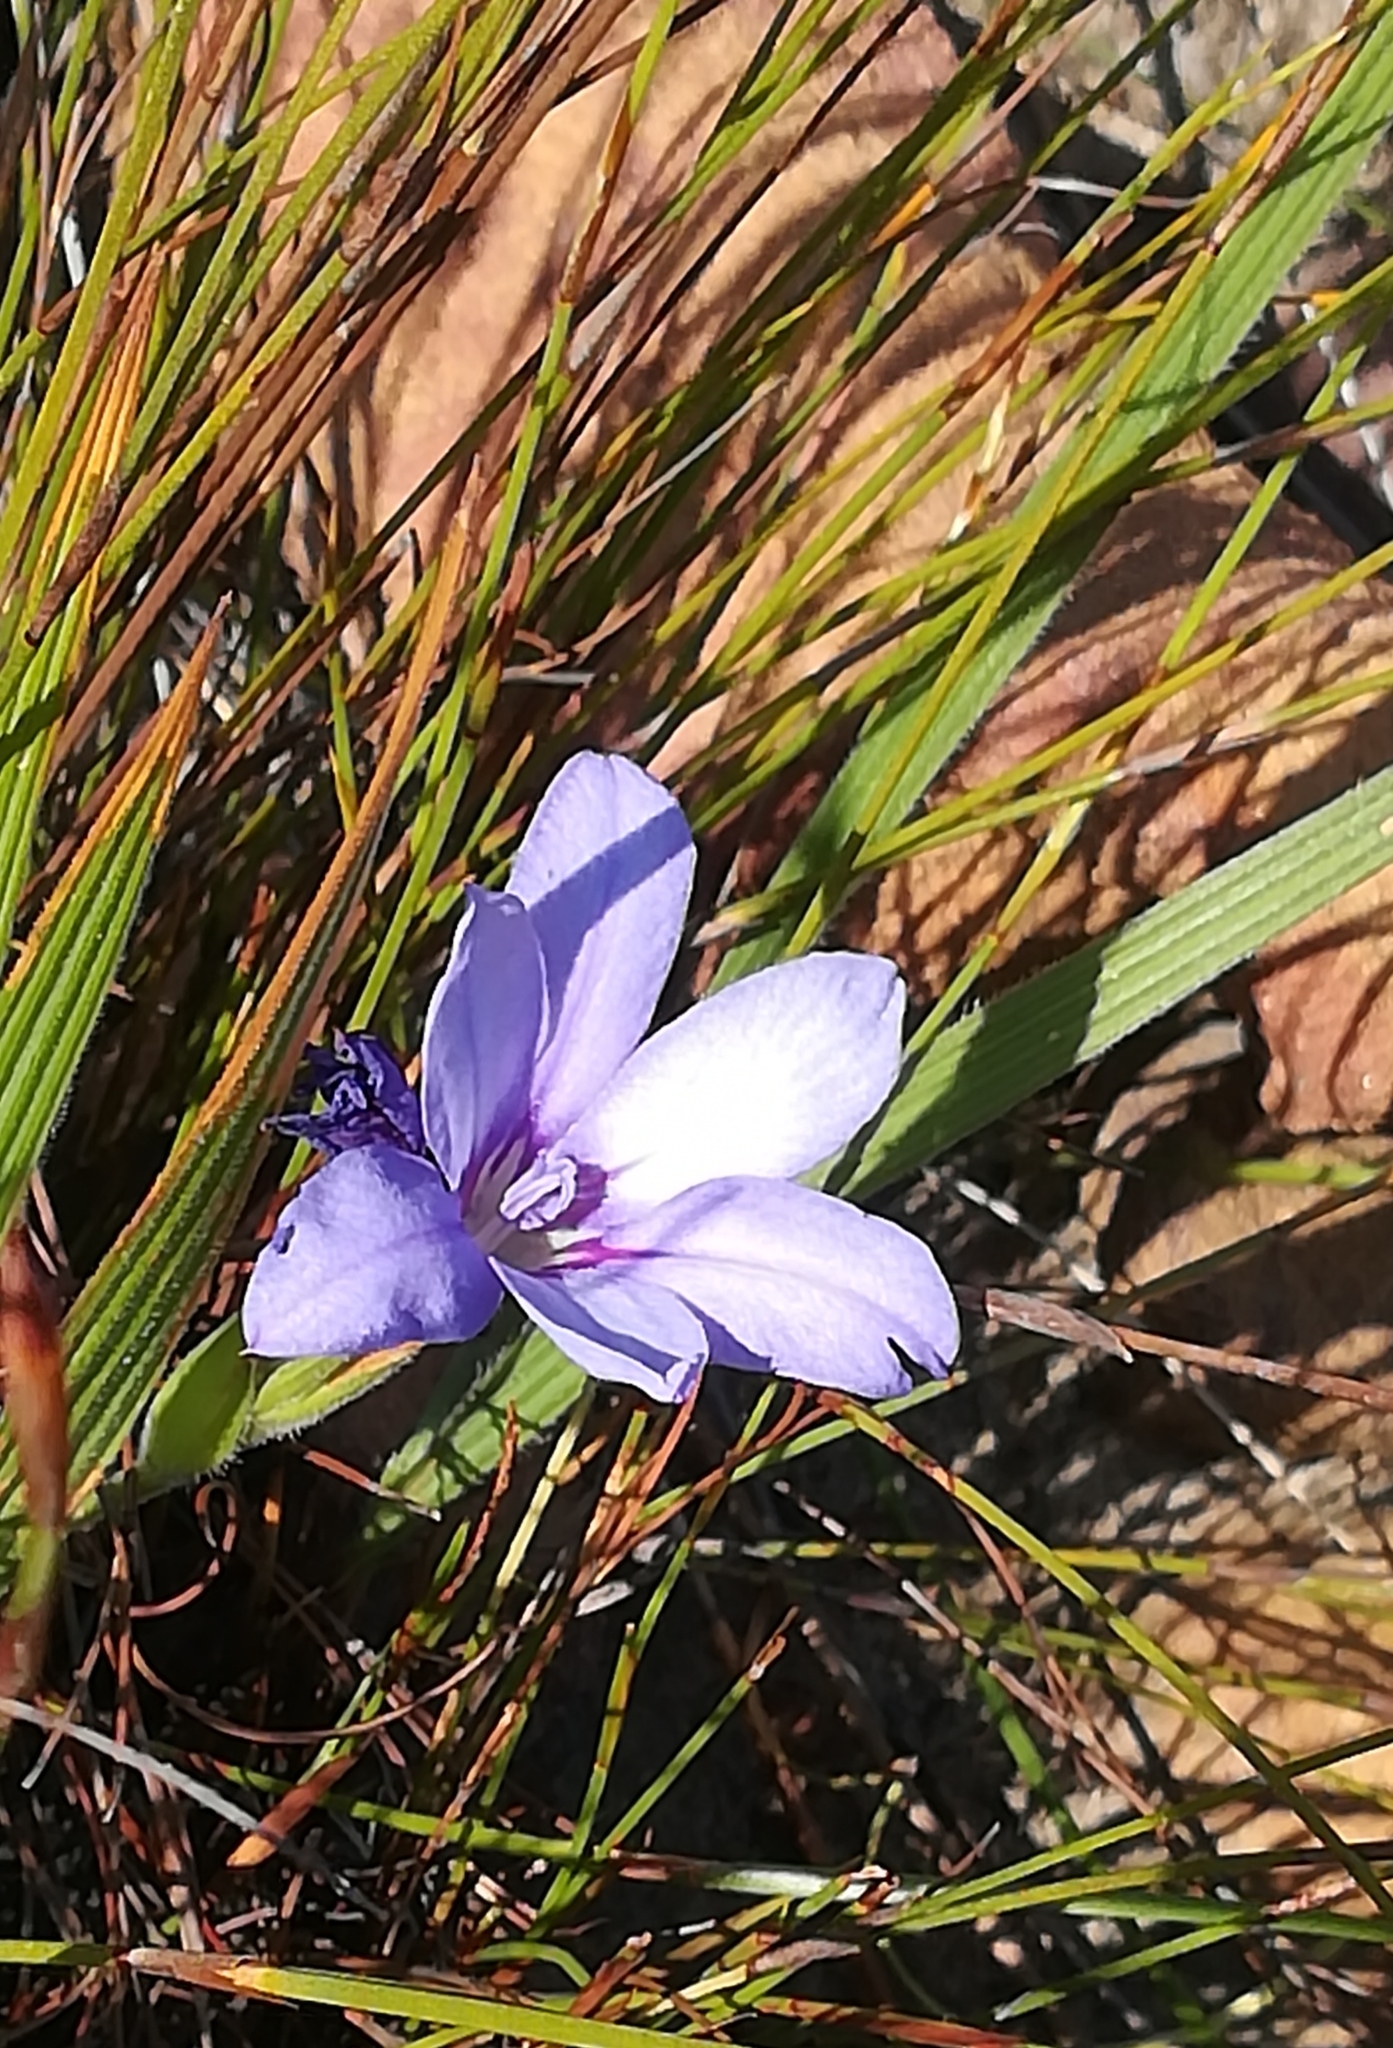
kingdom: Plantae
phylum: Tracheophyta
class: Liliopsida
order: Asparagales
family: Iridaceae
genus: Babiana
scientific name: Babiana villosula
